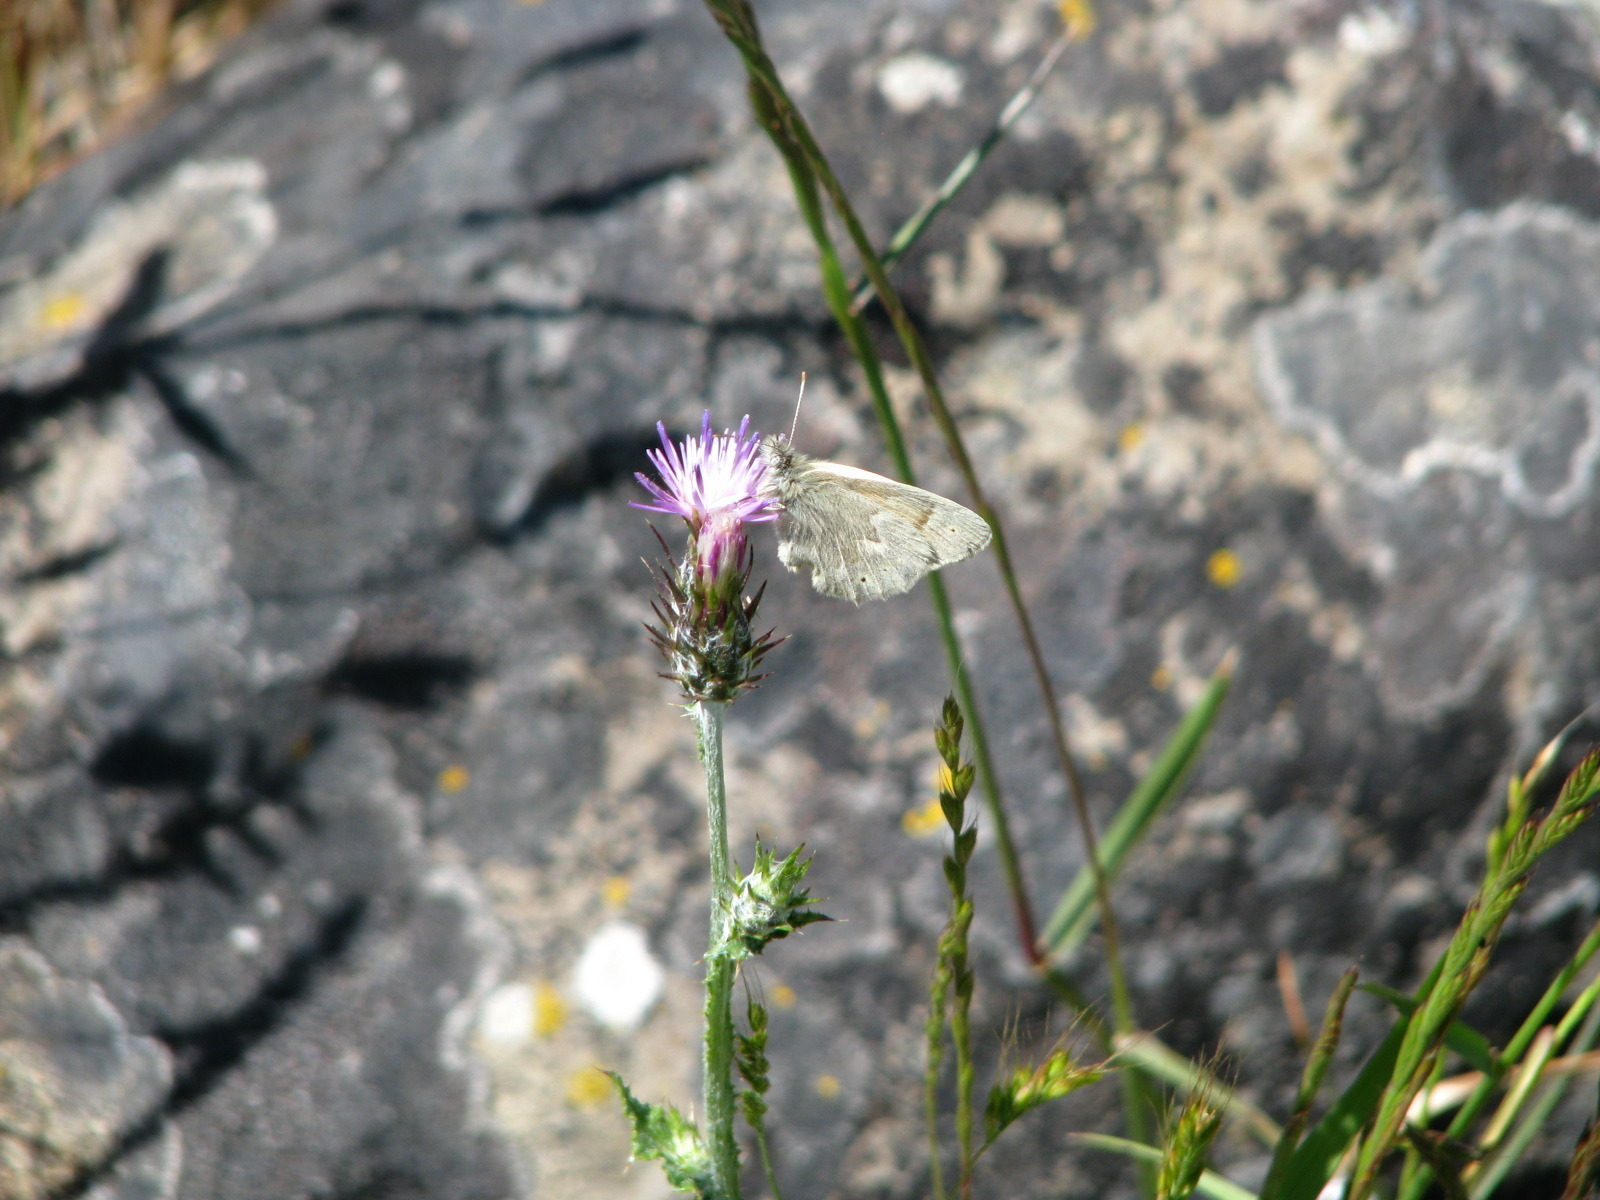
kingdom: Animalia
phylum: Arthropoda
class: Insecta
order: Lepidoptera
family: Nymphalidae
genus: Coenonympha
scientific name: Coenonympha california
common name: Common ringlet
